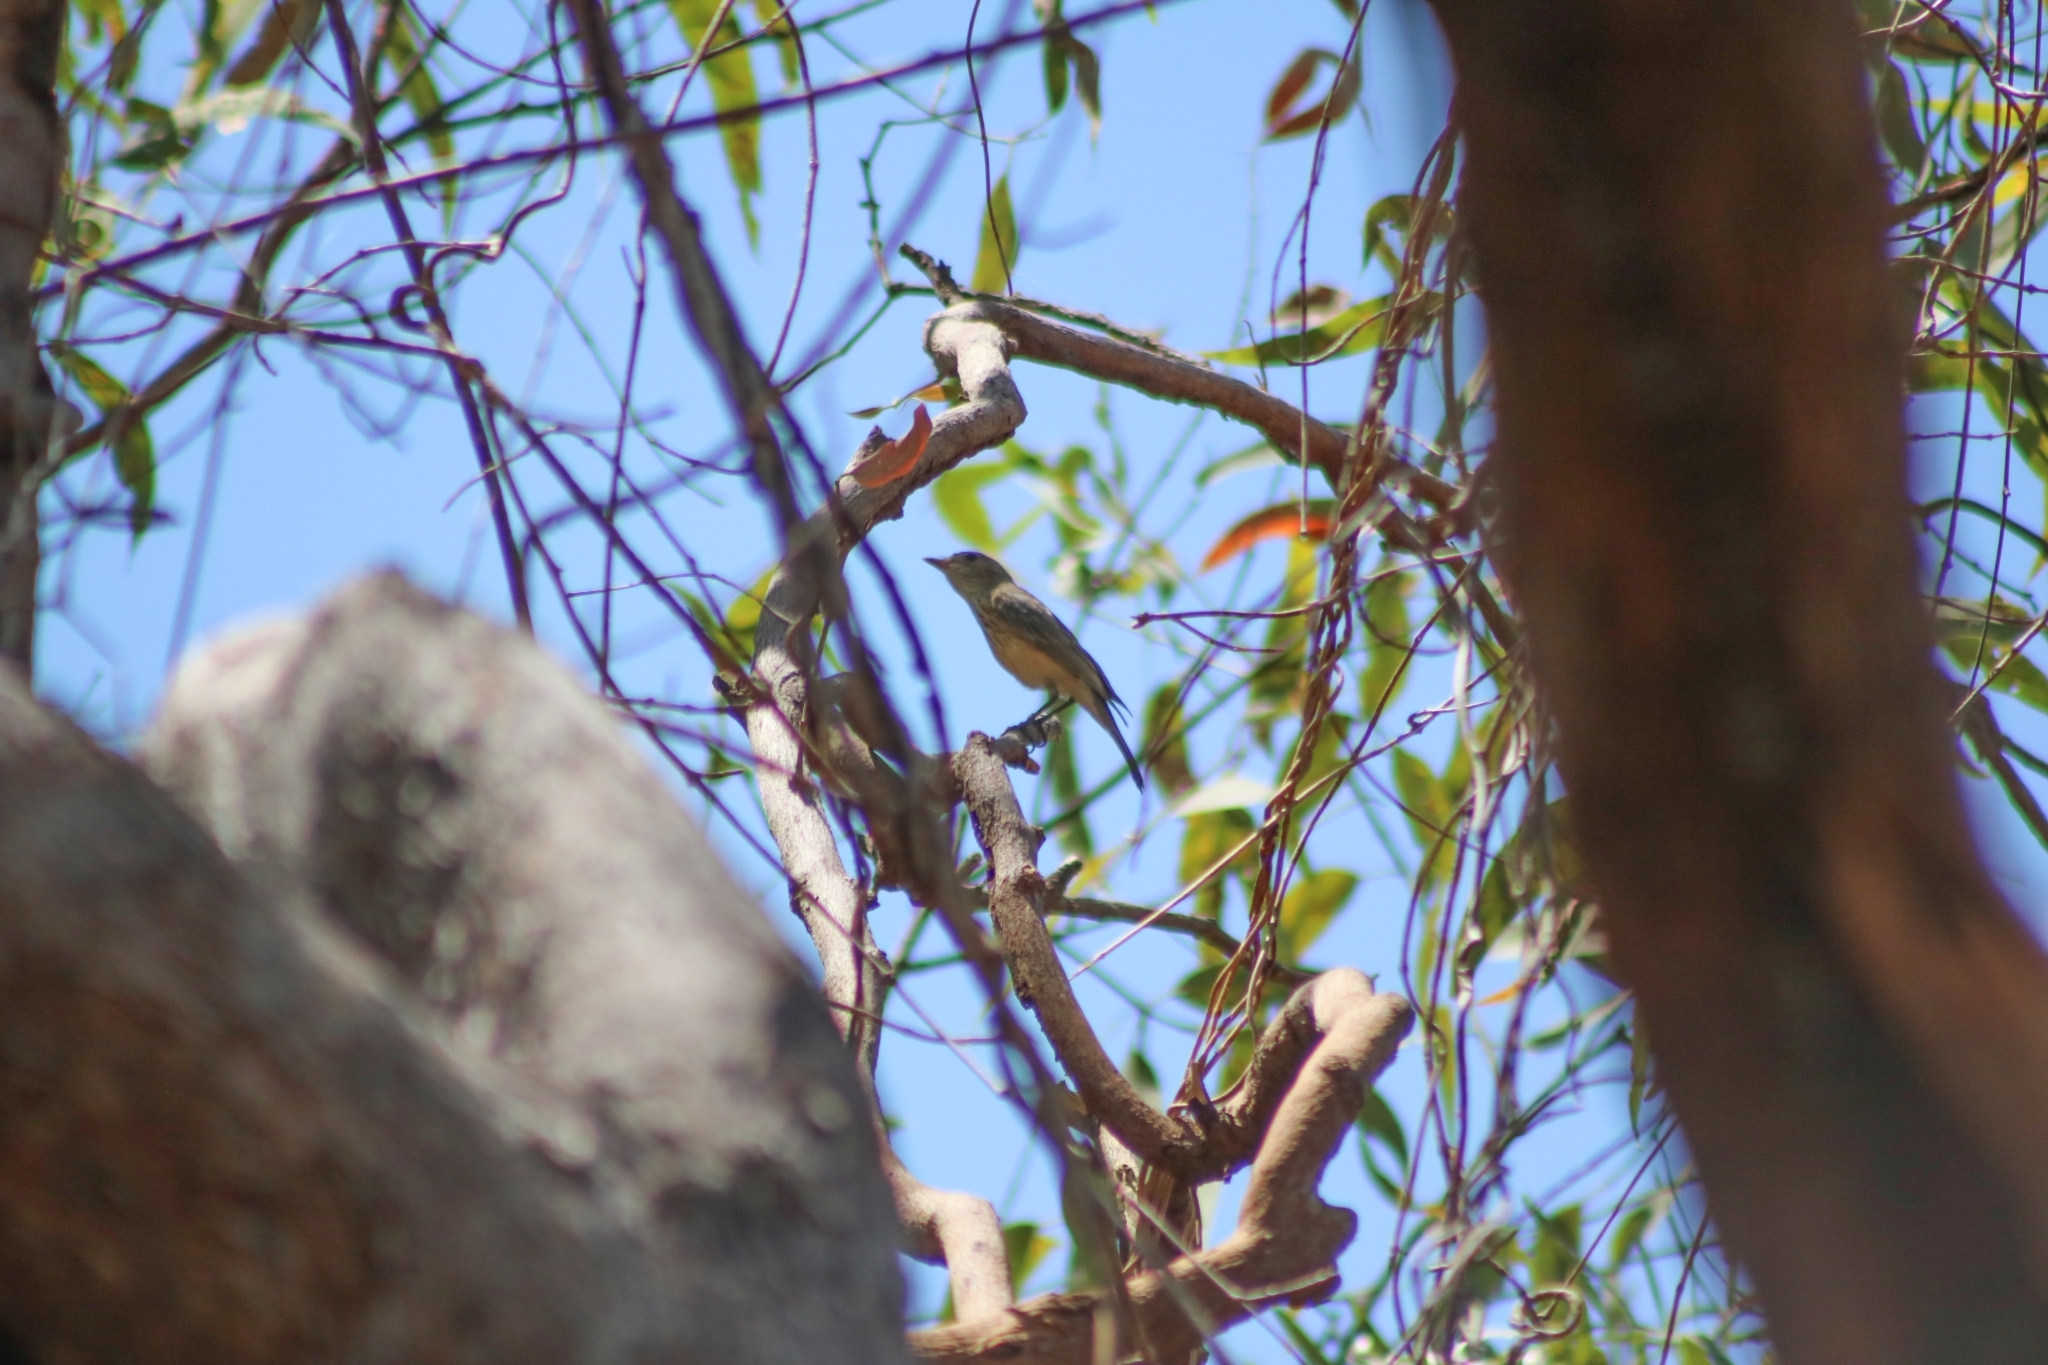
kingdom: Animalia
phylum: Chordata
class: Aves
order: Passeriformes
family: Pachycephalidae
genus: Pachycephala
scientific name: Pachycephala rufiventris
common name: Rufous whistler
